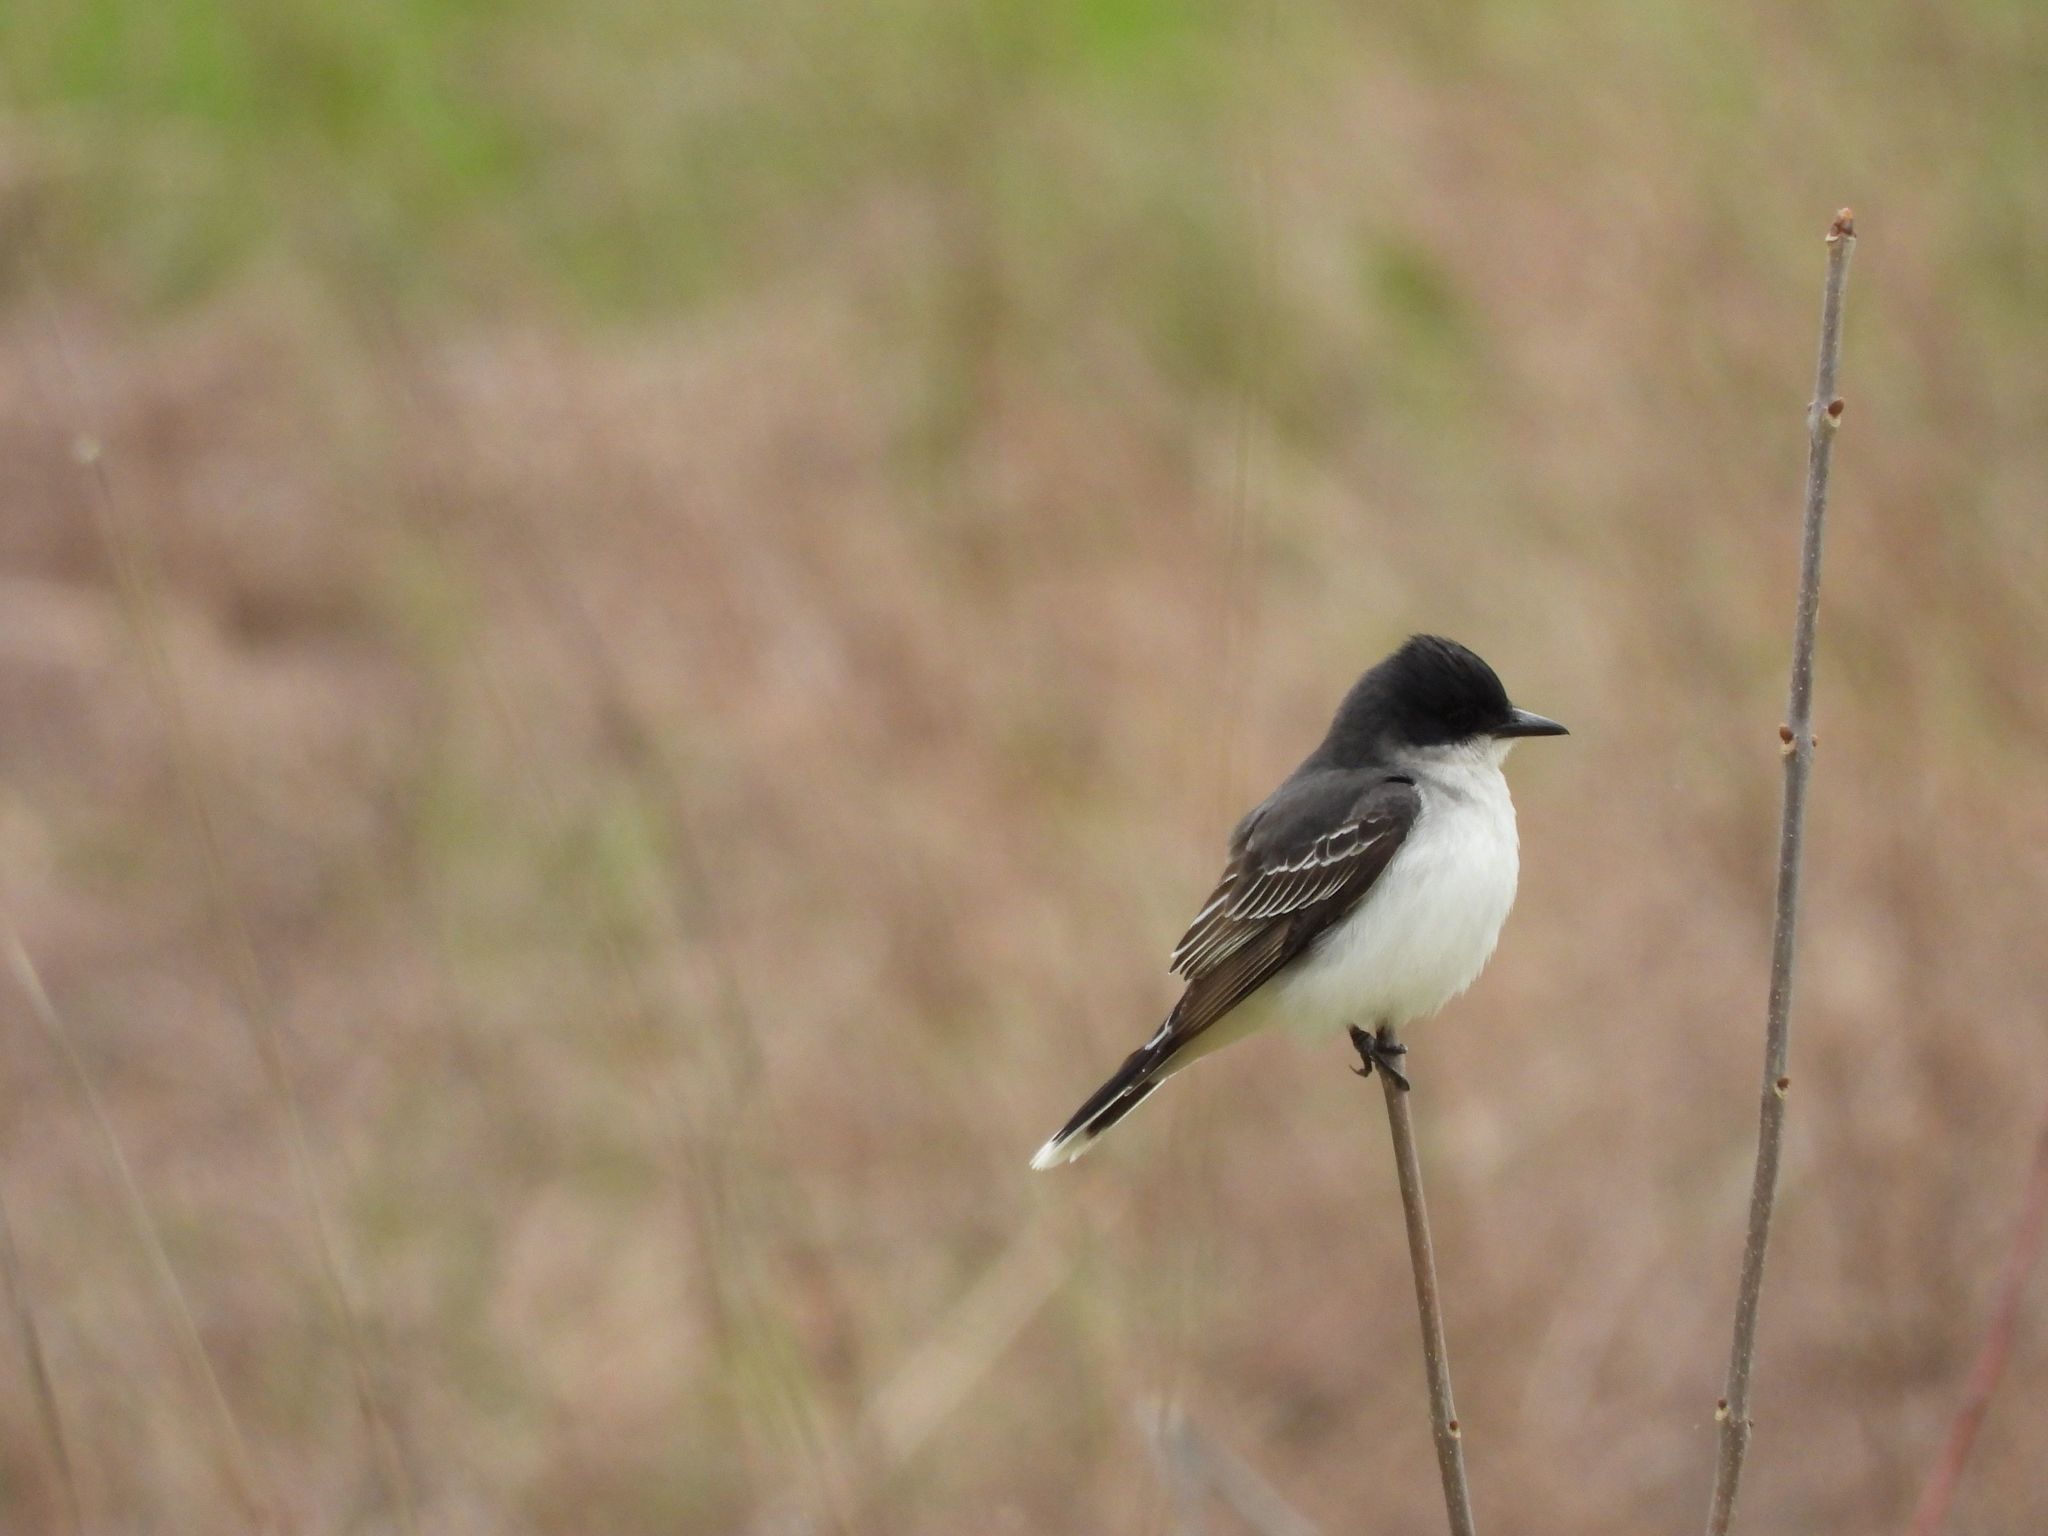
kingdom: Animalia
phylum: Chordata
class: Aves
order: Passeriformes
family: Tyrannidae
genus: Tyrannus
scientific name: Tyrannus tyrannus
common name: Eastern kingbird
